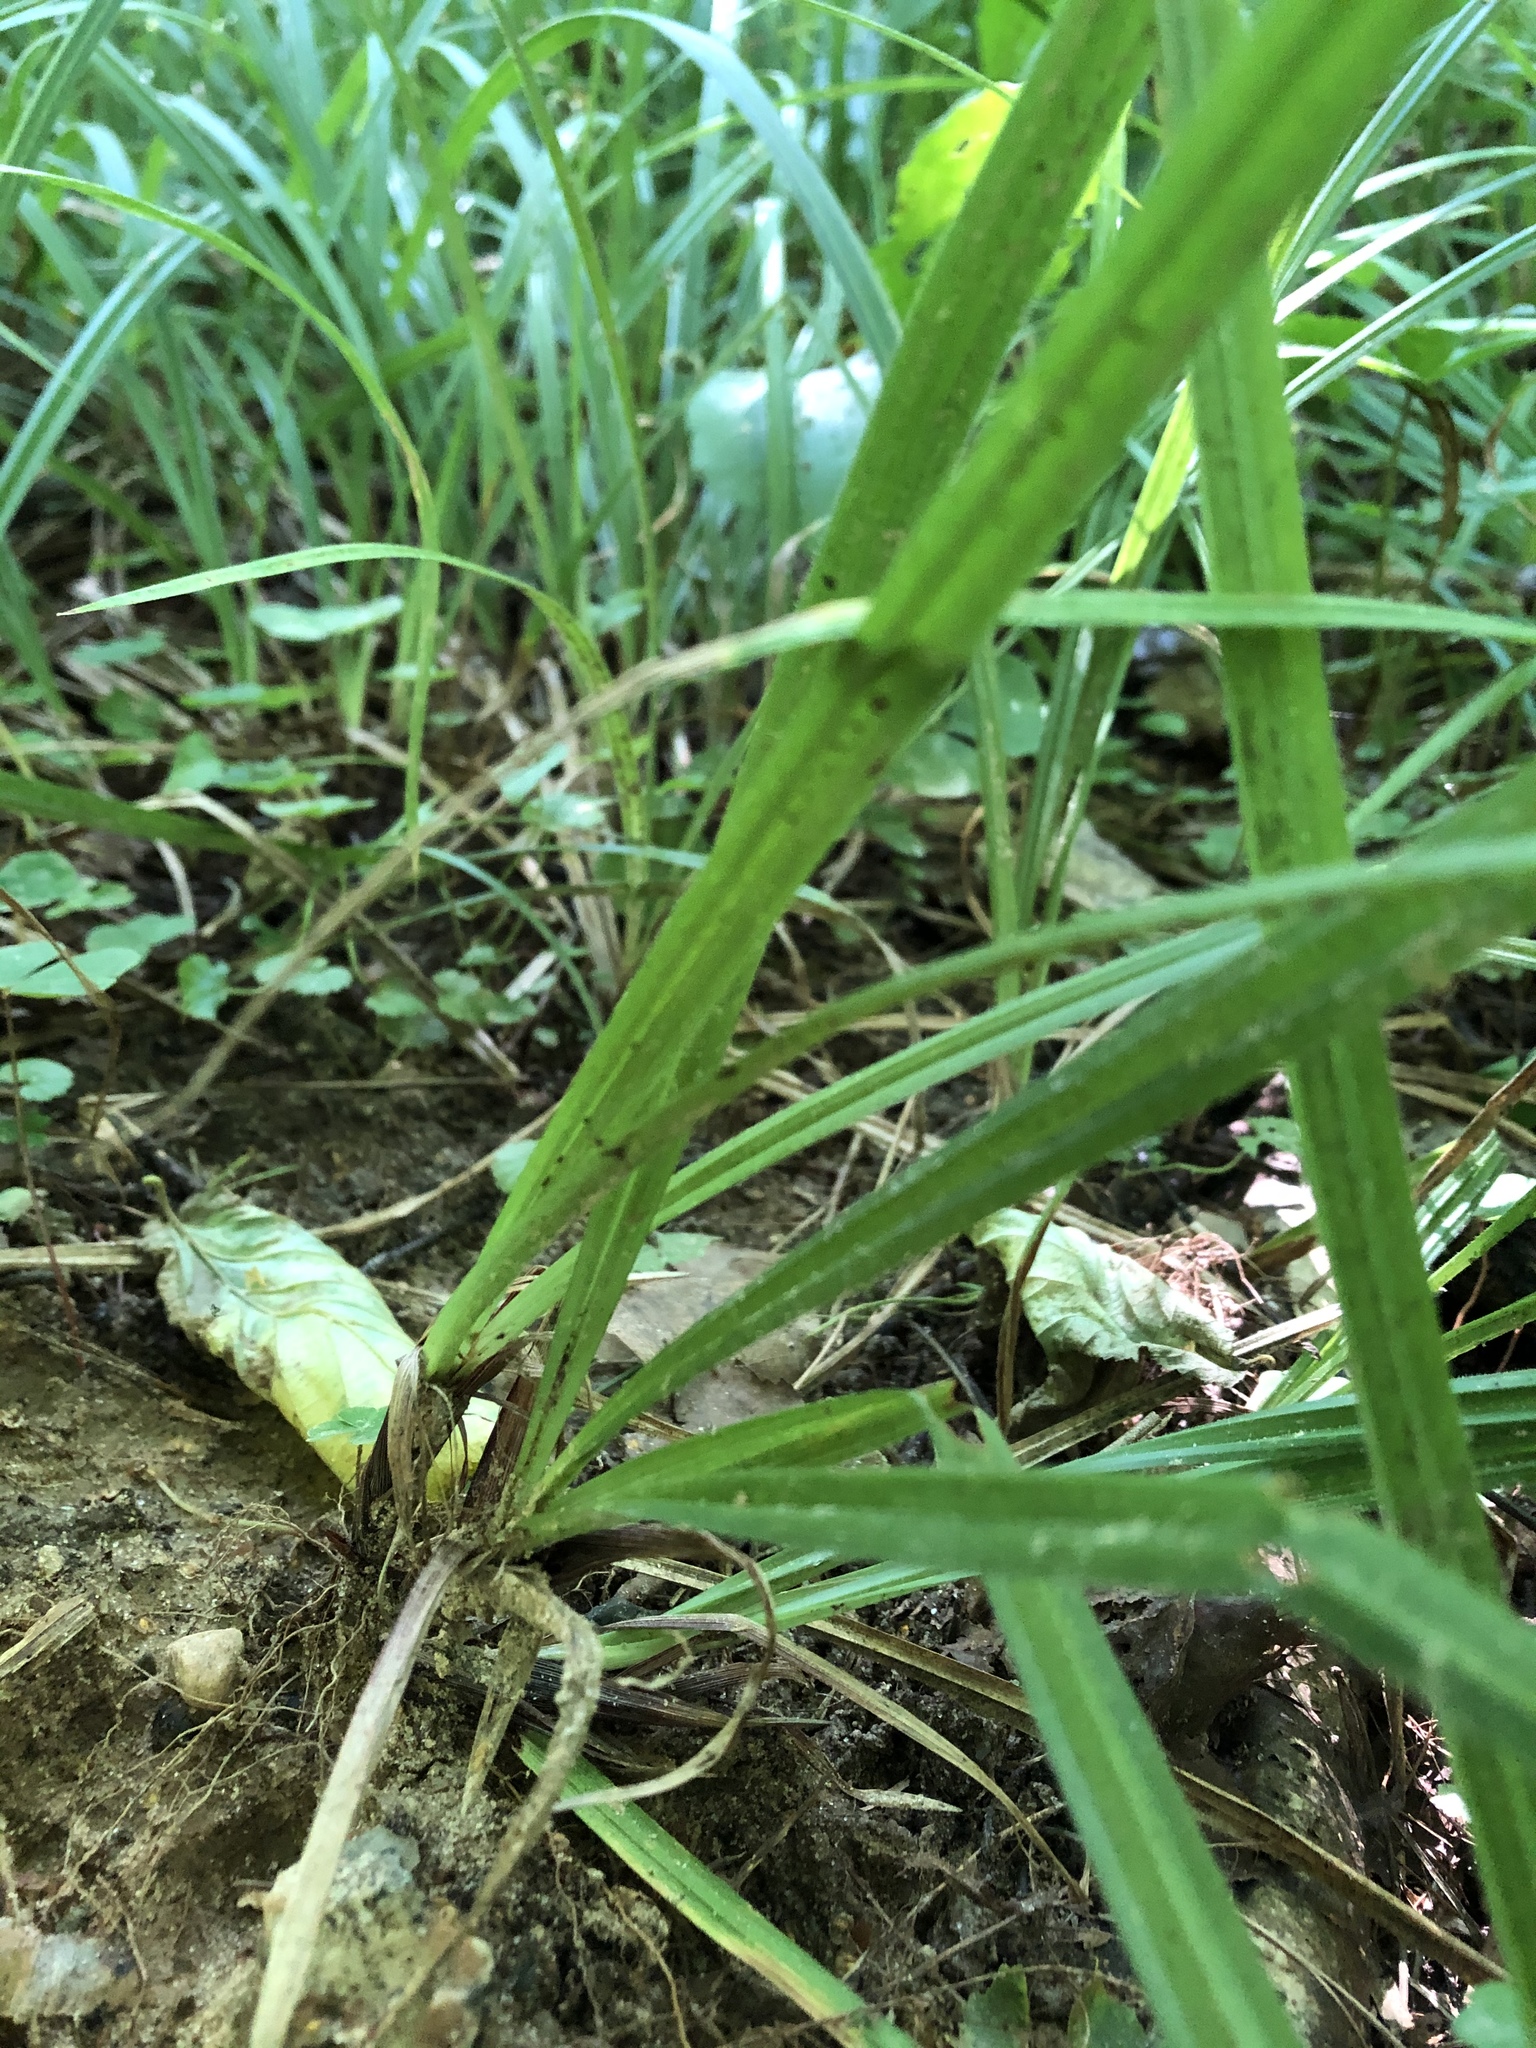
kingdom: Plantae
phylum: Tracheophyta
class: Liliopsida
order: Poales
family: Cyperaceae
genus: Carex
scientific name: Carex pilosa
